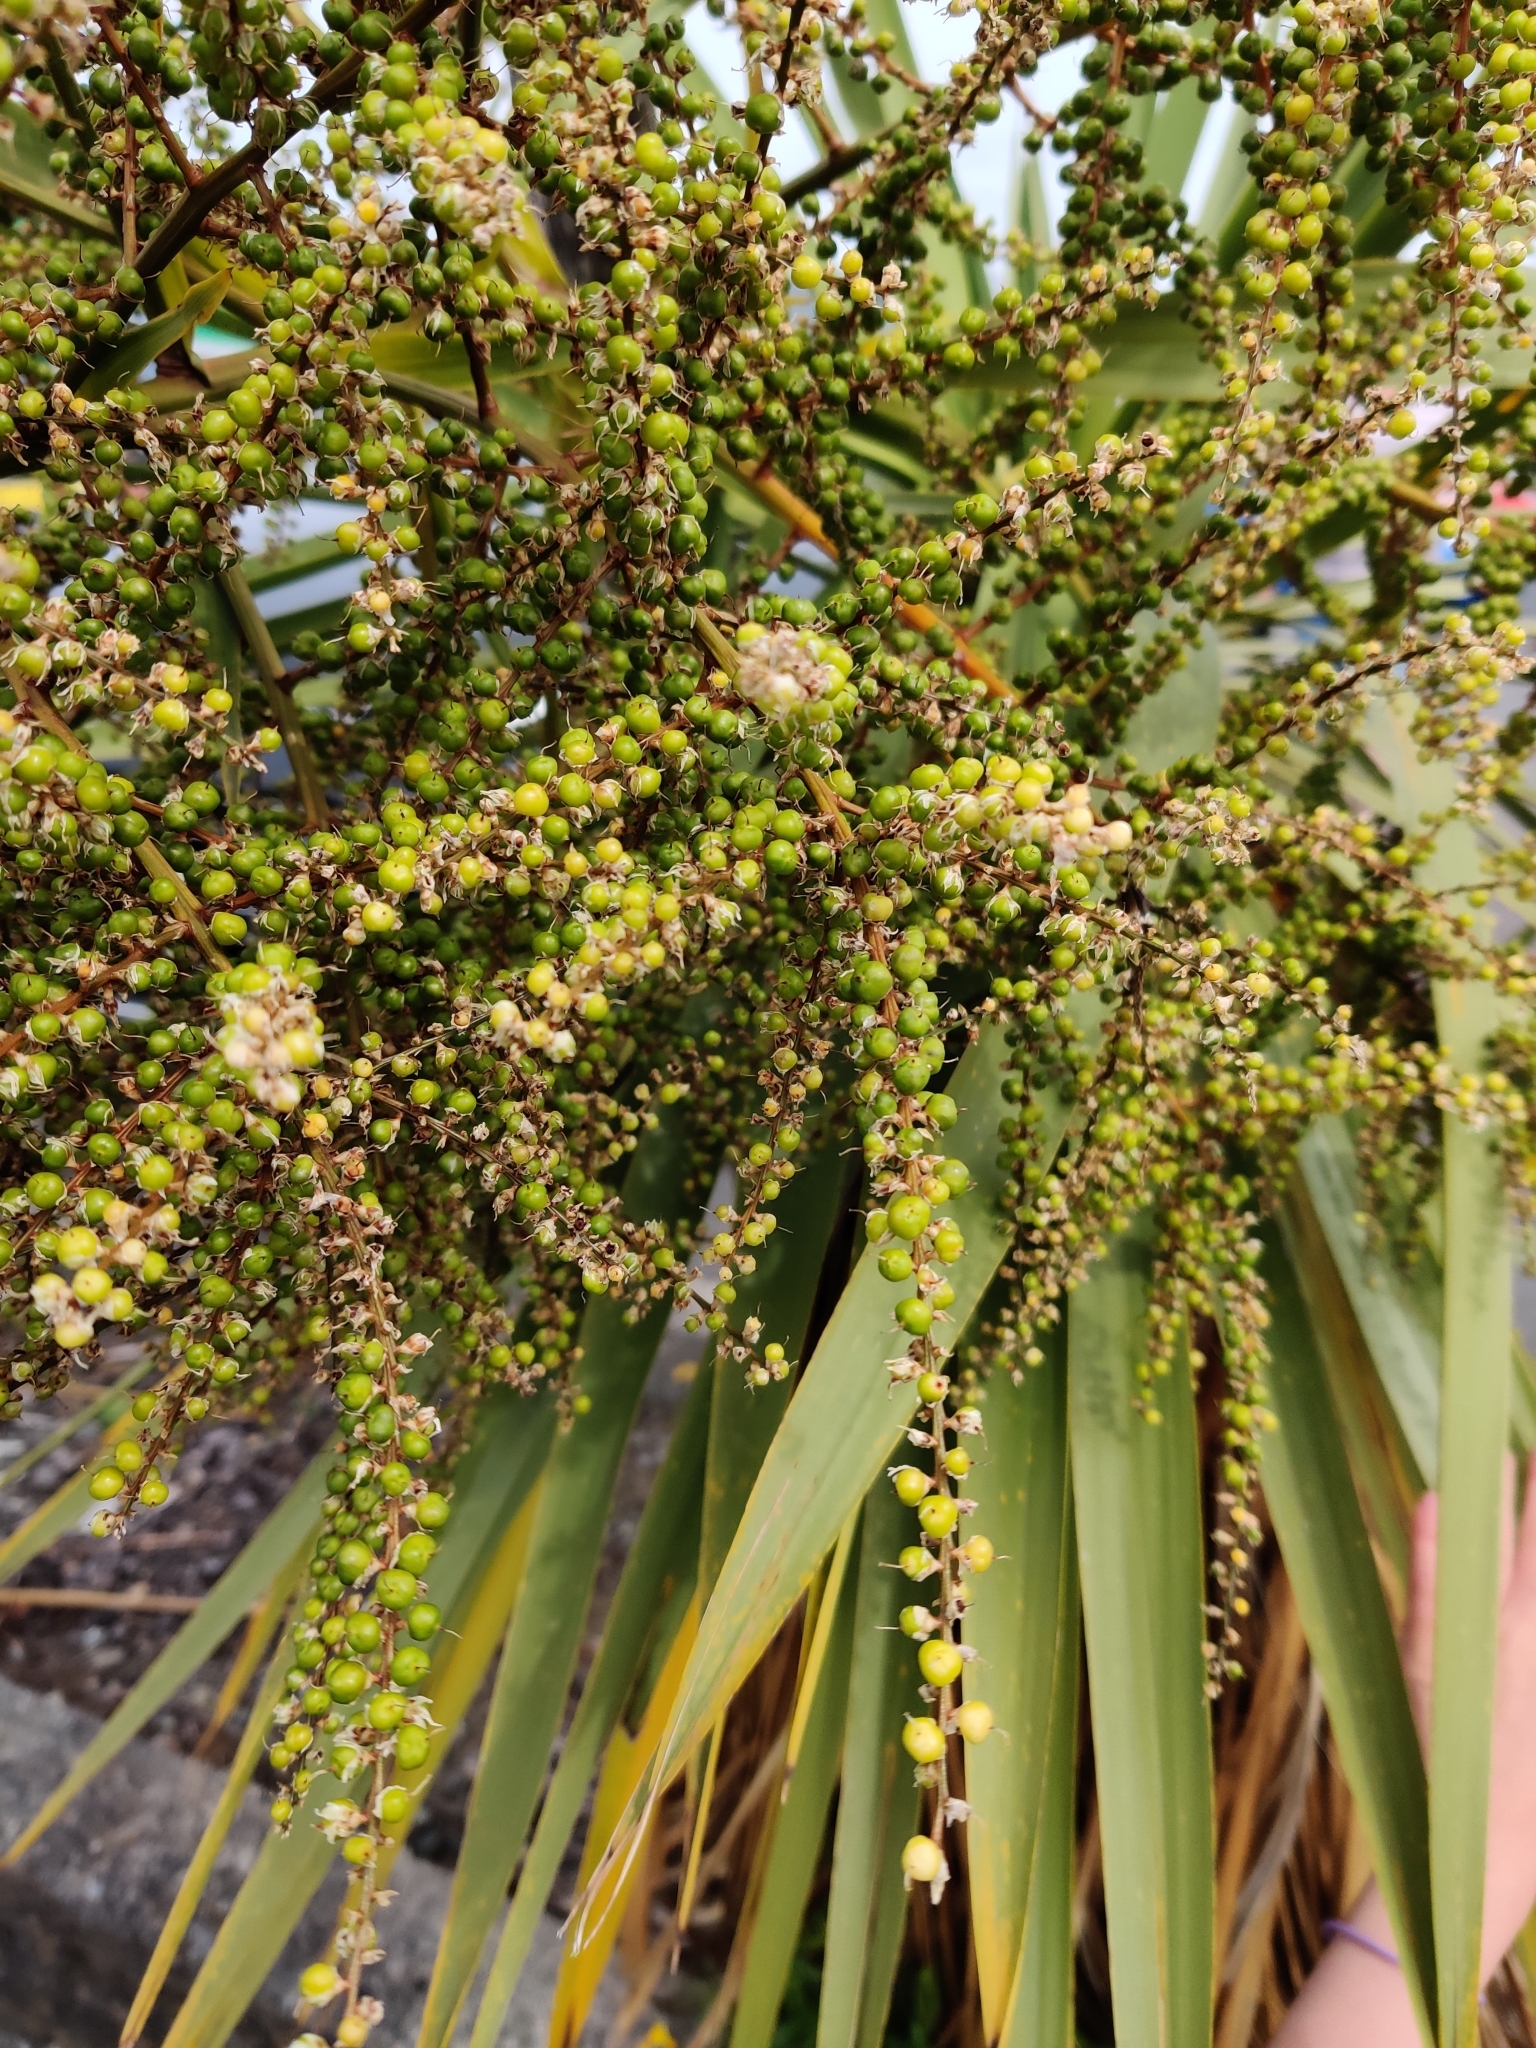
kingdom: Plantae
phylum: Tracheophyta
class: Liliopsida
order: Asparagales
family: Asparagaceae
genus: Cordyline
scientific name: Cordyline australis
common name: Cabbage-palm
